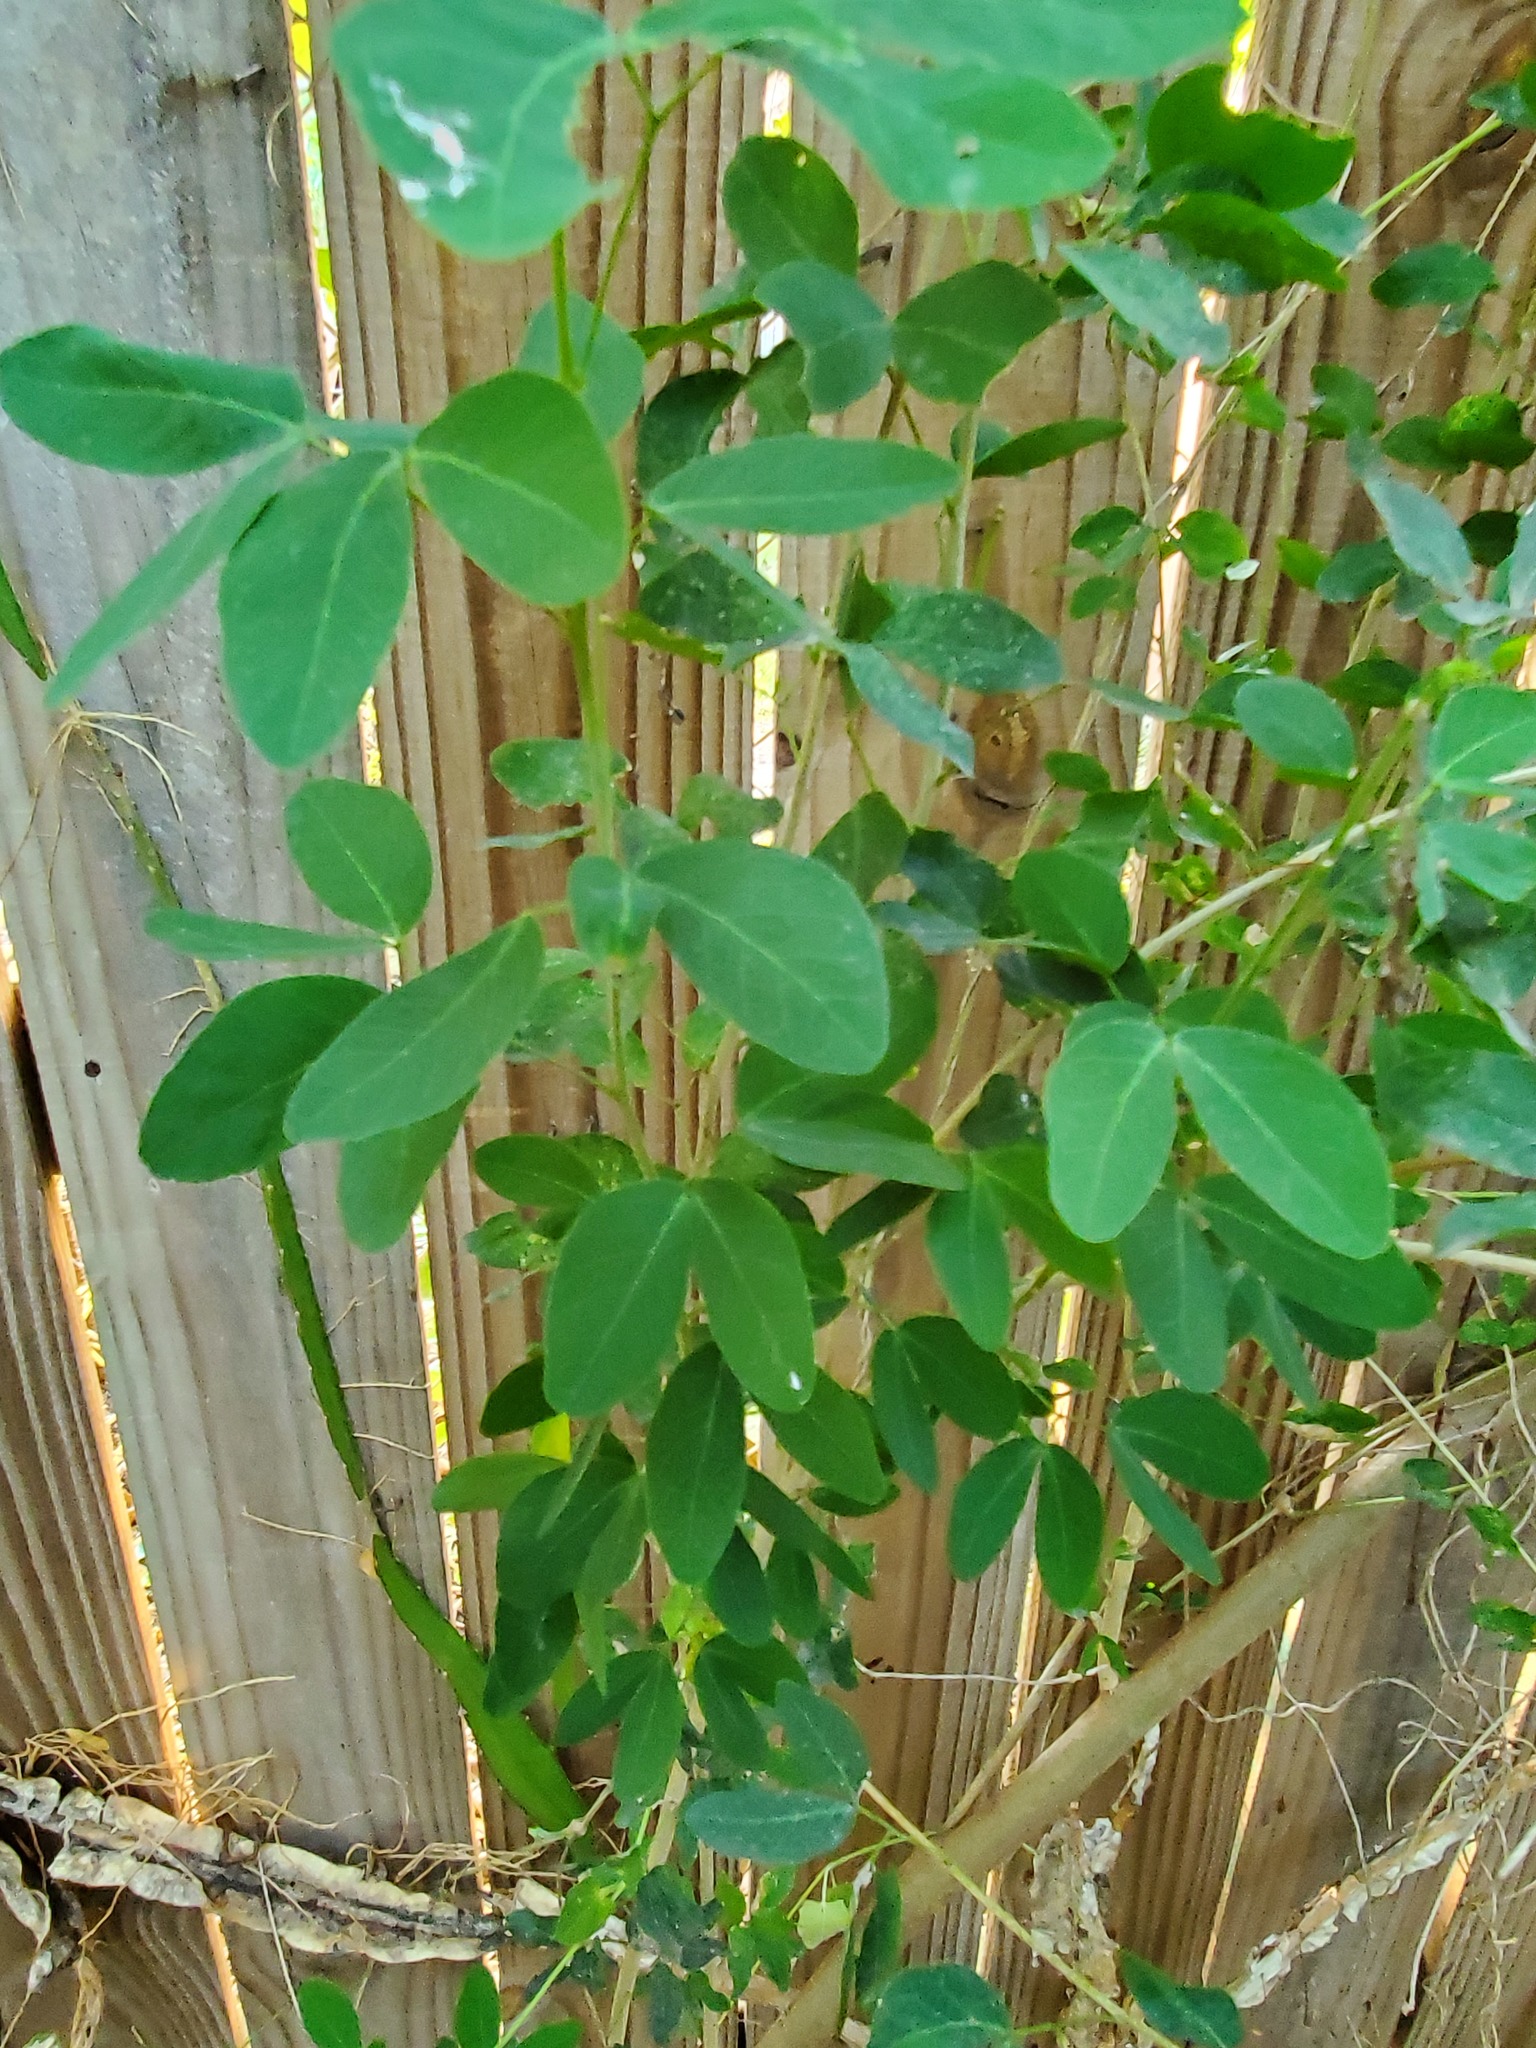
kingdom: Plantae
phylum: Tracheophyta
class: Magnoliopsida
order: Fabales
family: Fabaceae
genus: Pithecellobium
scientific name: Pithecellobium dulce
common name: Monkeypod
